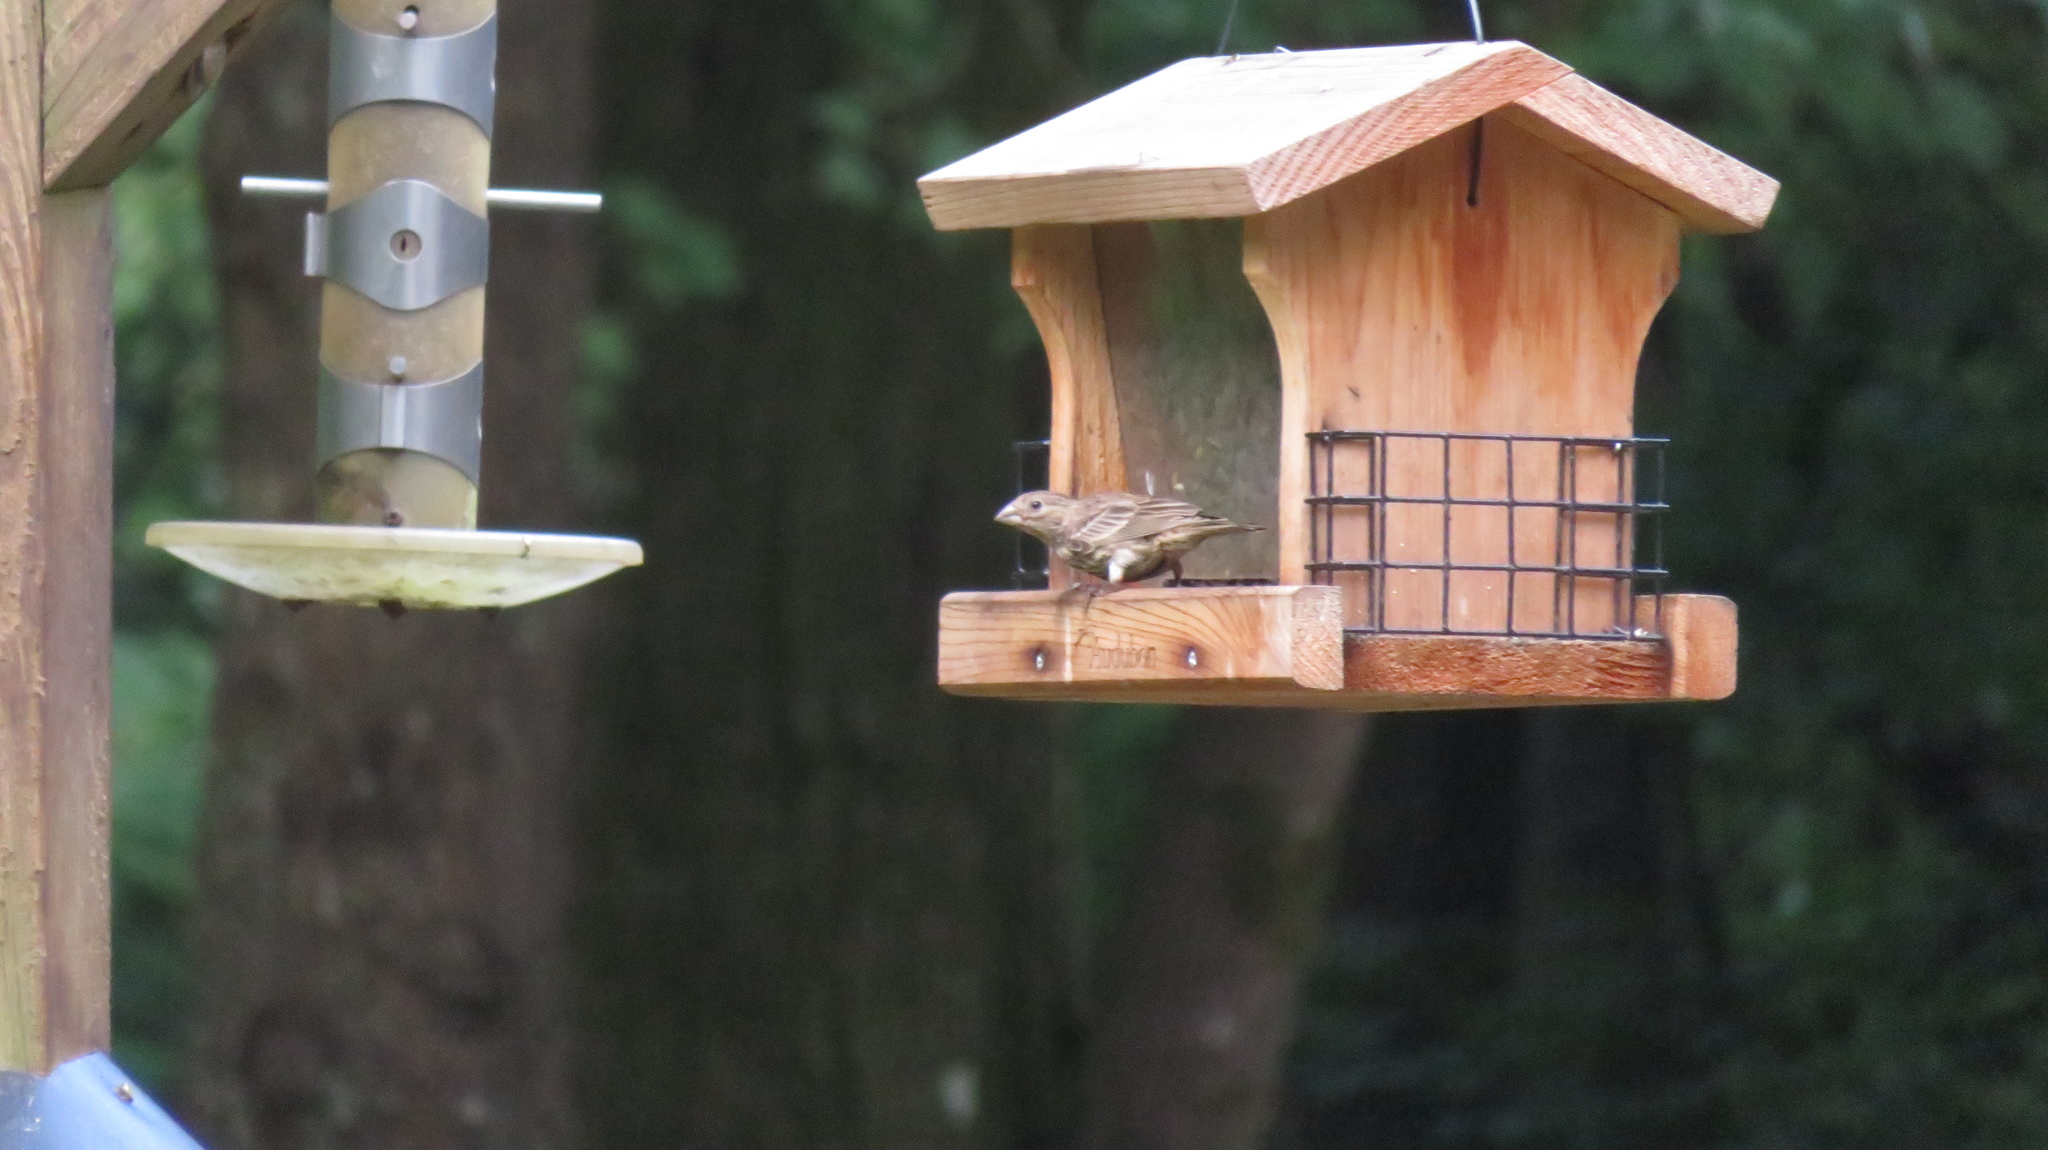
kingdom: Animalia
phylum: Chordata
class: Aves
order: Passeriformes
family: Fringillidae
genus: Haemorhous
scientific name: Haemorhous mexicanus
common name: House finch
